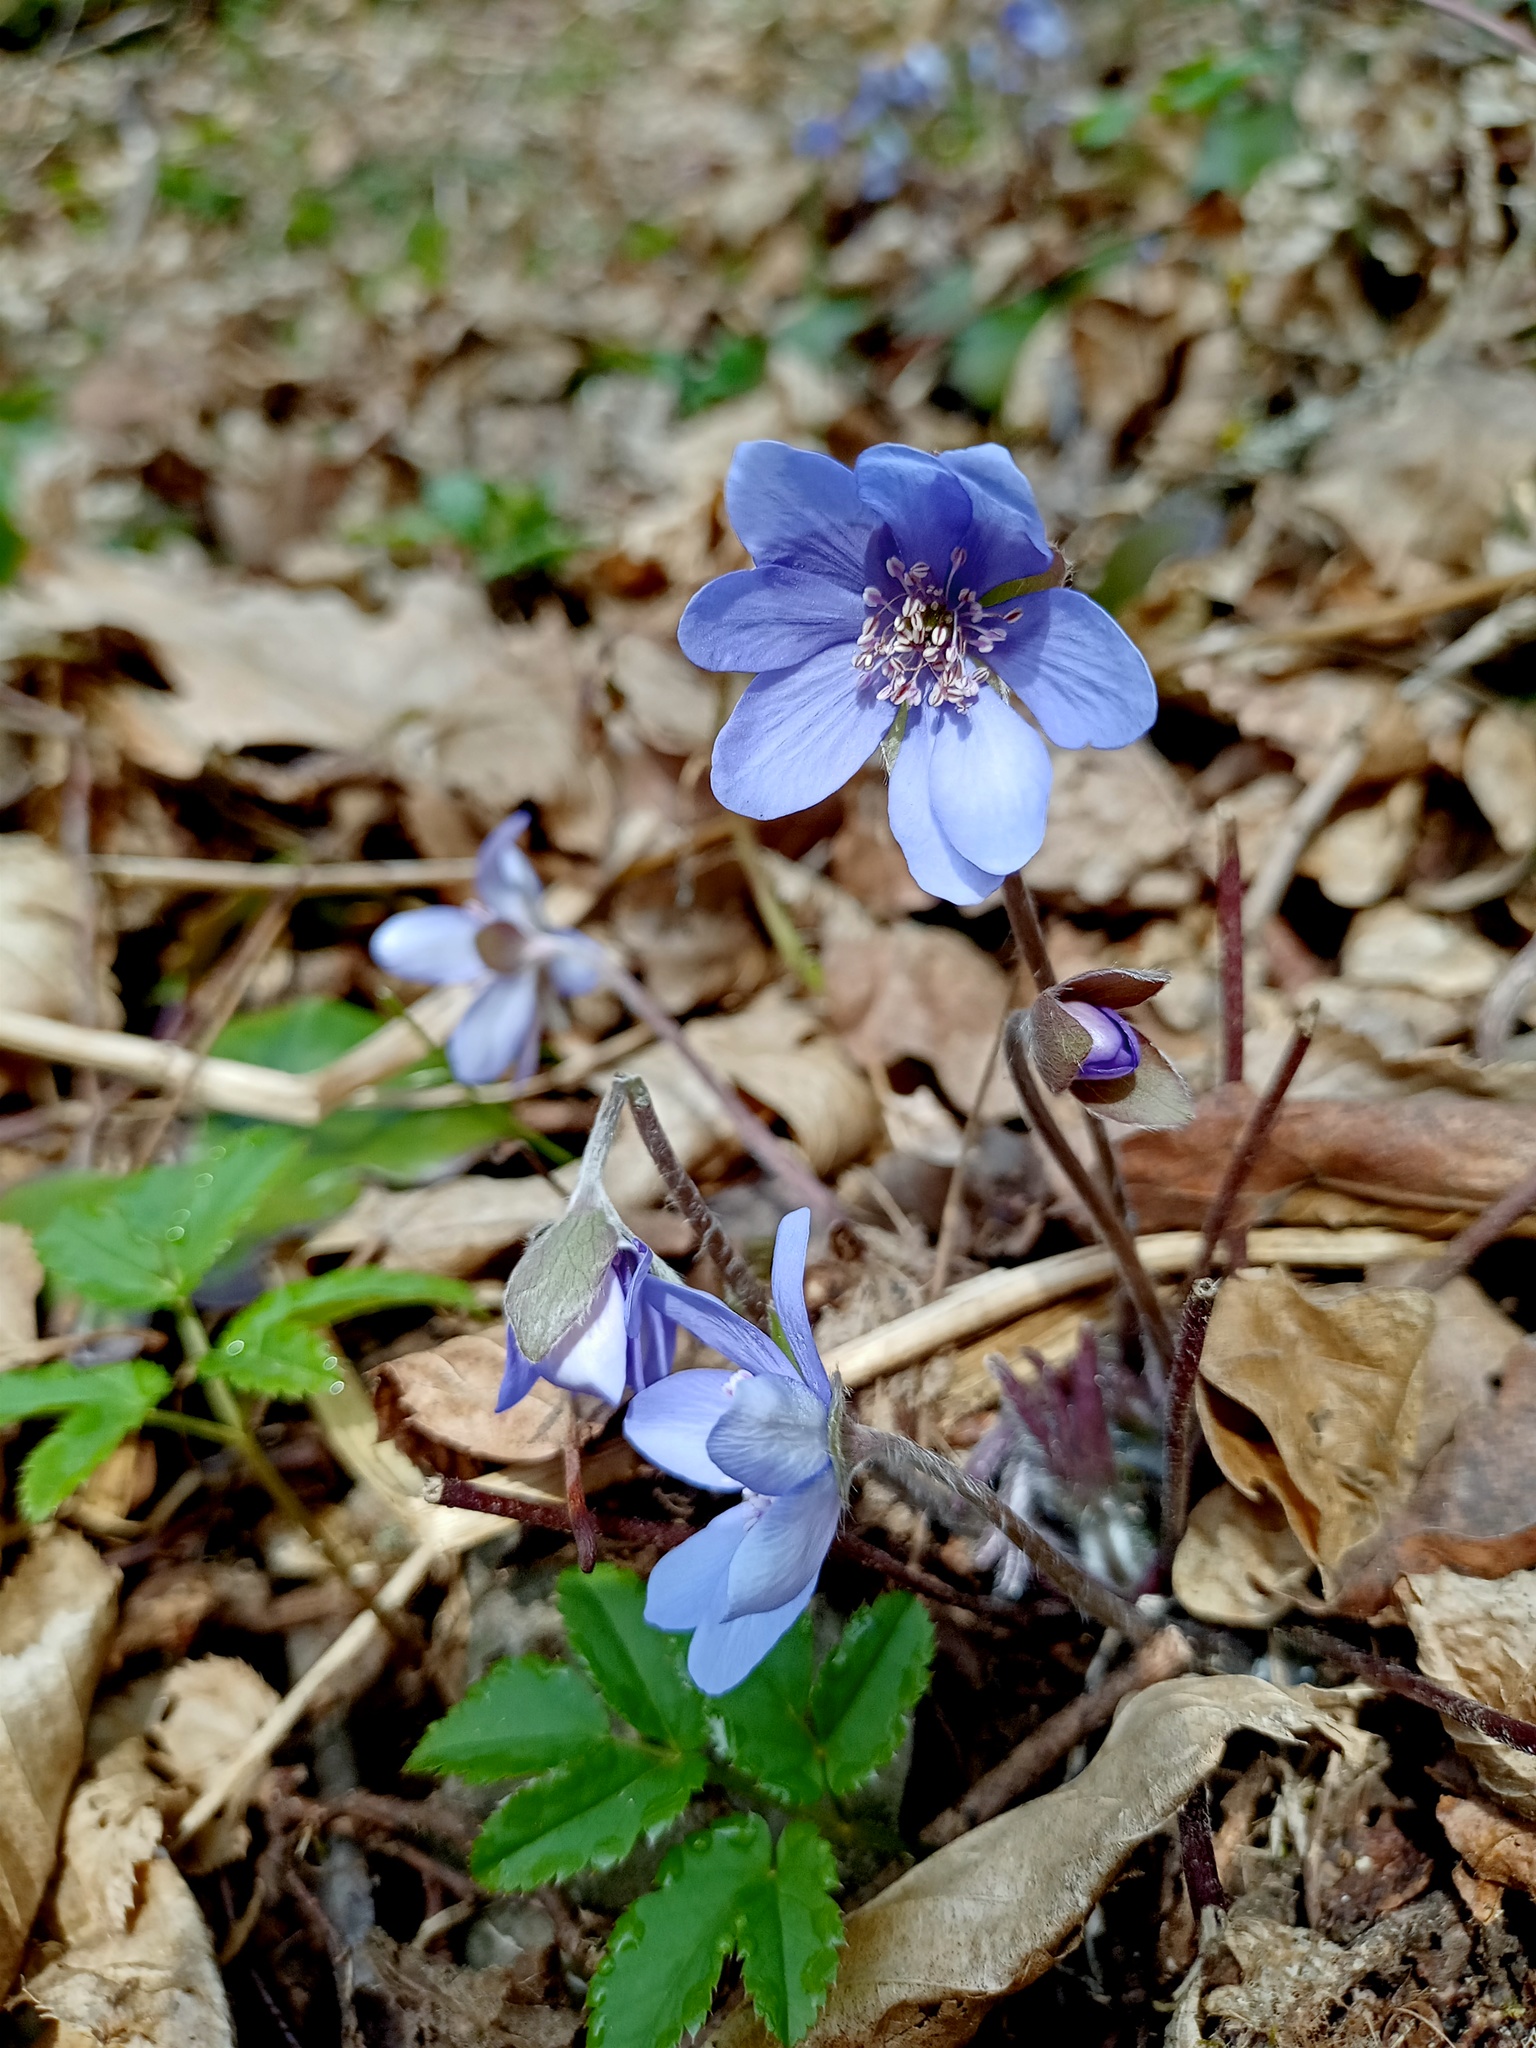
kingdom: Plantae
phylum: Tracheophyta
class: Magnoliopsida
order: Ranunculales
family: Ranunculaceae
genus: Hepatica
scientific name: Hepatica nobilis
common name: Liverleaf
